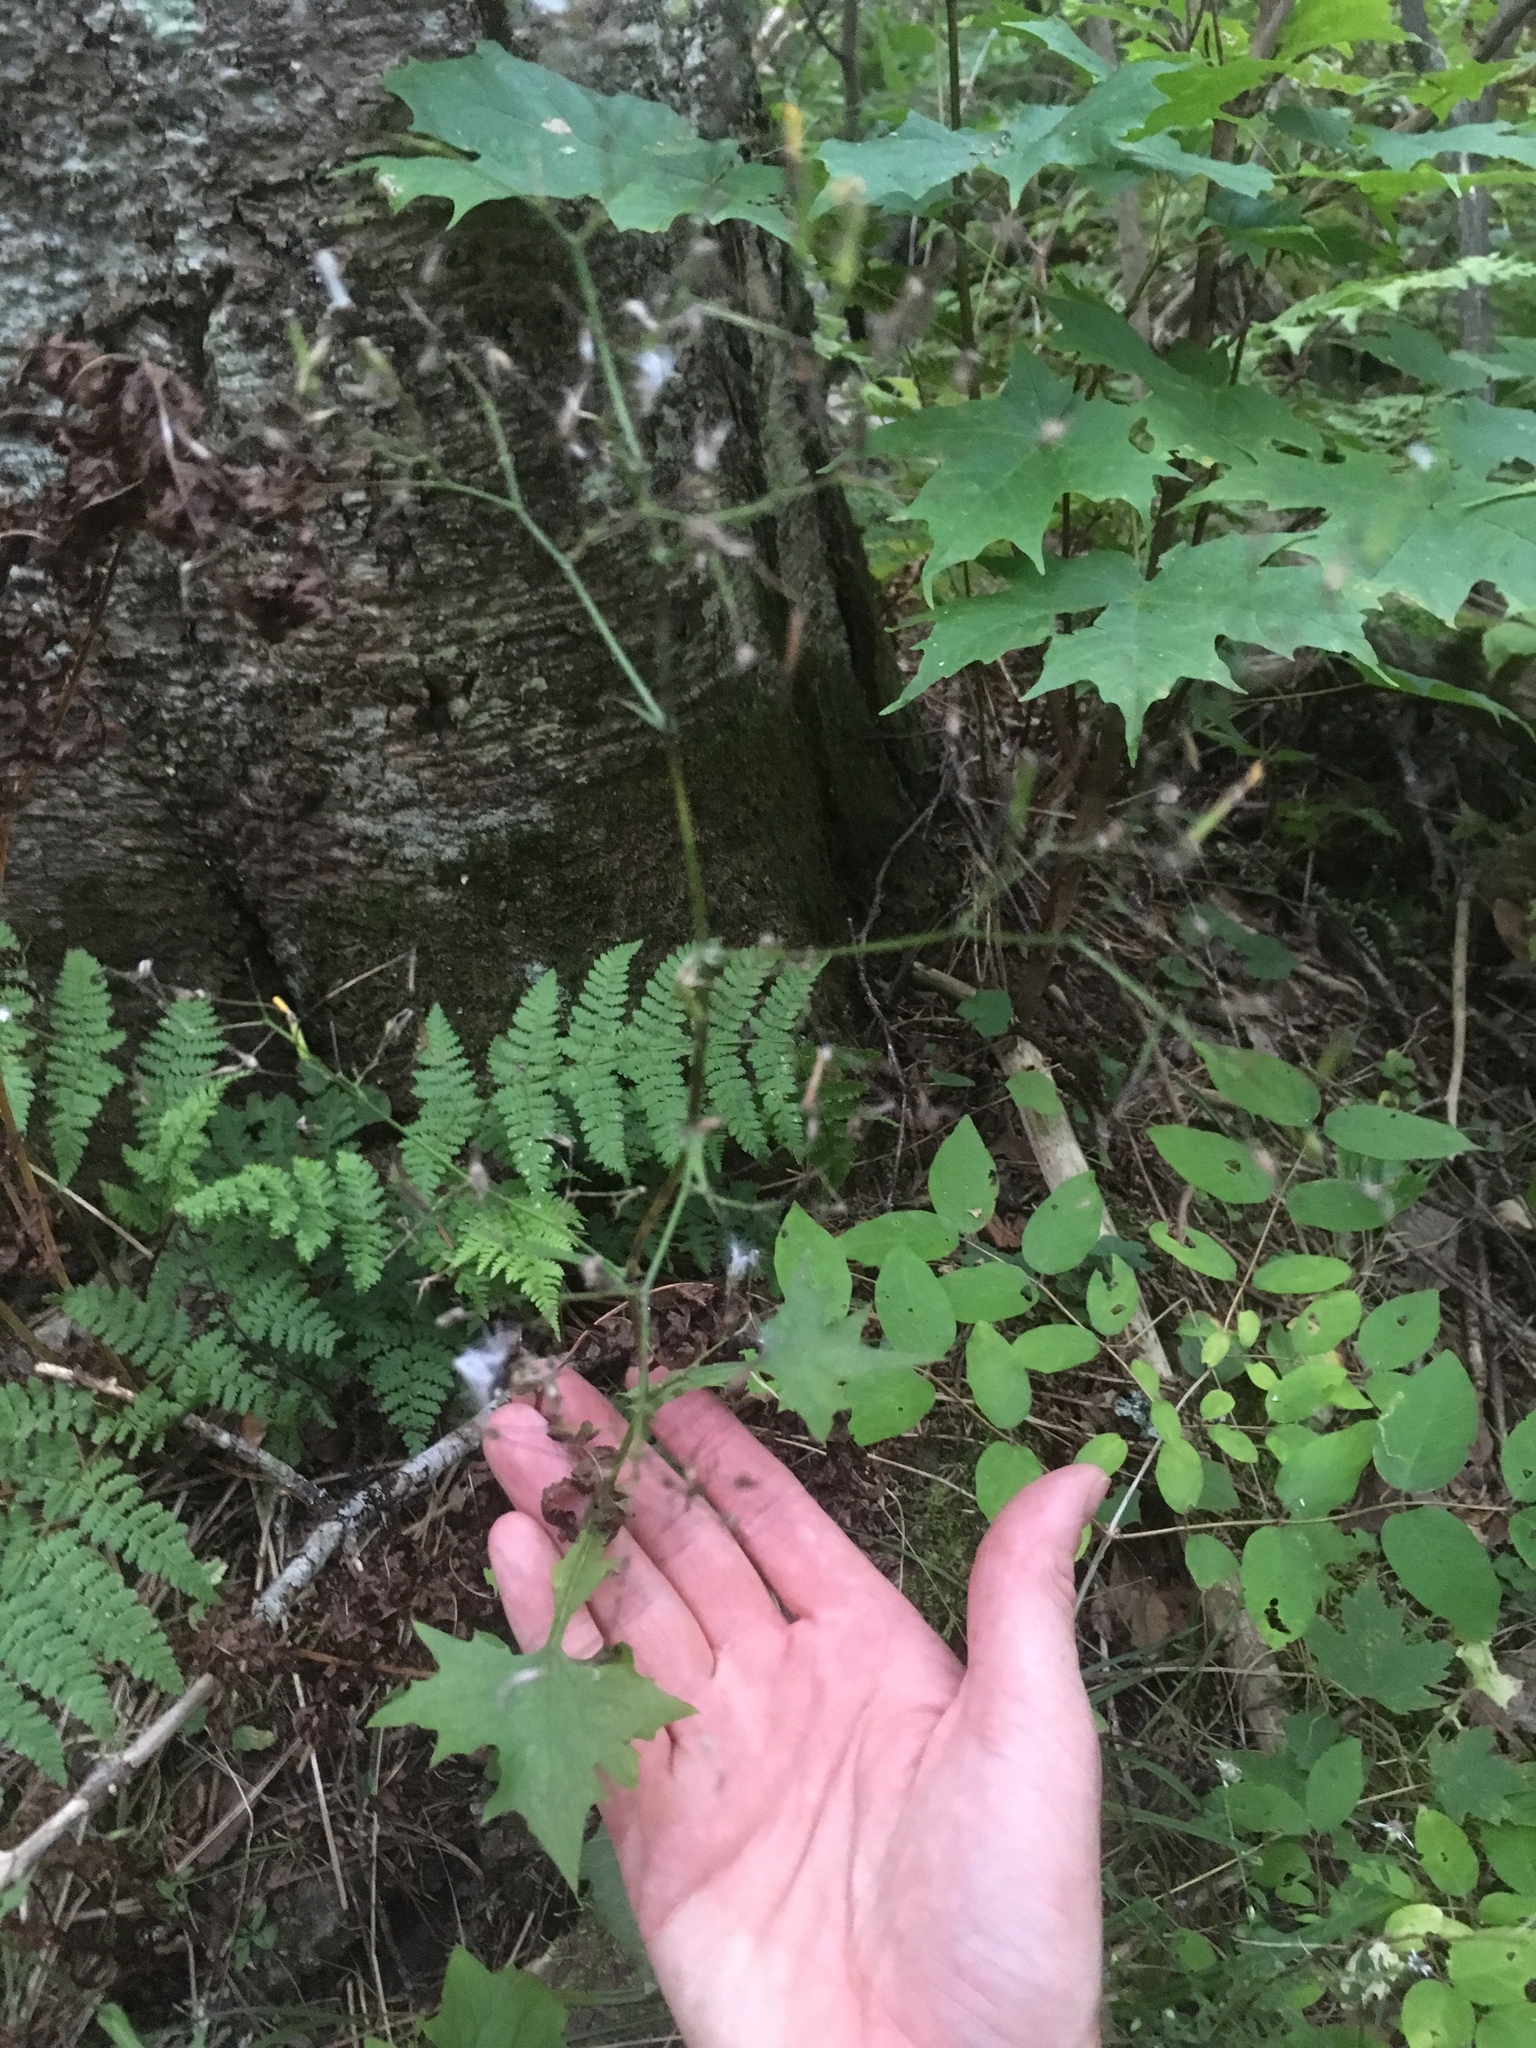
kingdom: Plantae
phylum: Tracheophyta
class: Magnoliopsida
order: Asterales
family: Asteraceae
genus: Mycelis
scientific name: Mycelis muralis
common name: Wall lettuce
